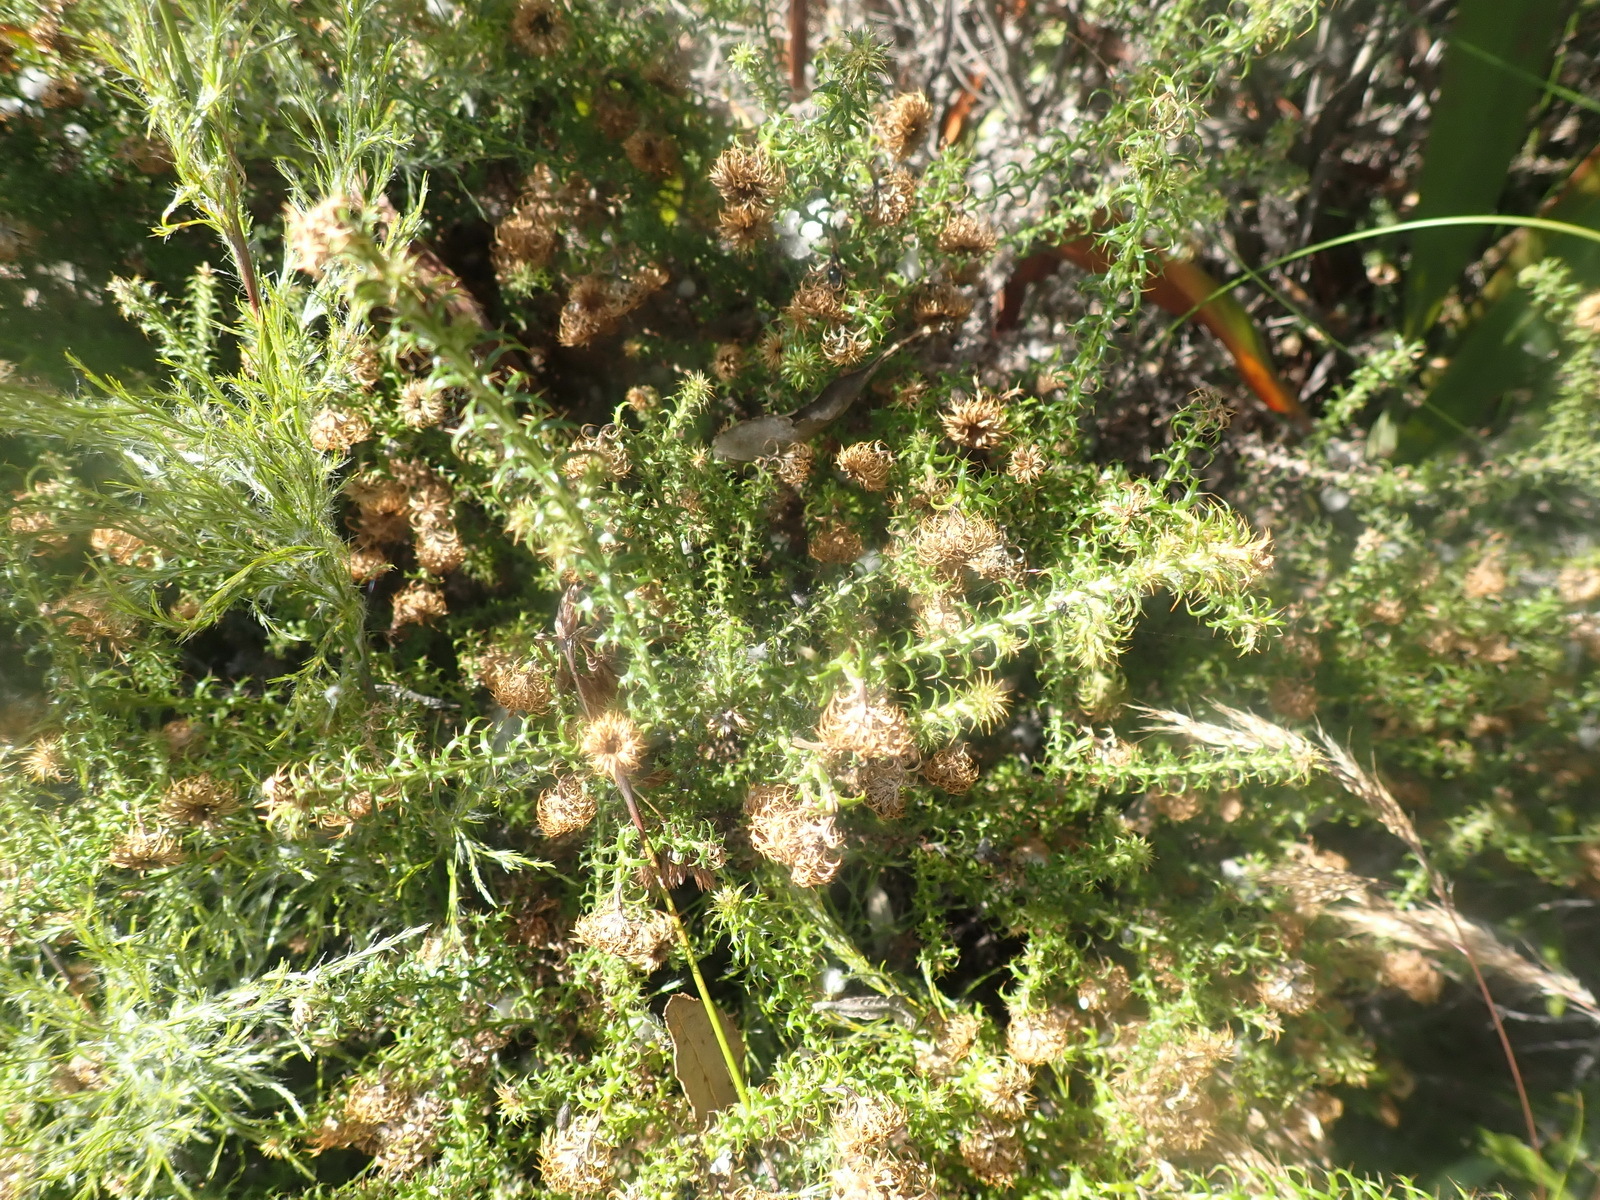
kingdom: Plantae
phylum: Tracheophyta
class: Magnoliopsida
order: Asterales
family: Asteraceae
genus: Cullumia
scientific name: Cullumia decurrens
